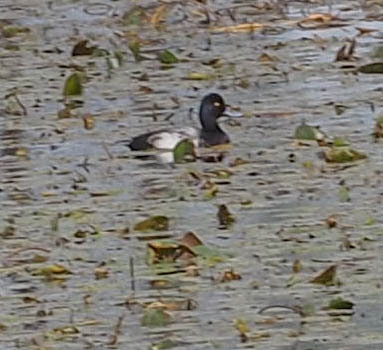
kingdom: Animalia
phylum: Chordata
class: Aves
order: Anseriformes
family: Anatidae
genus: Aythya
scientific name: Aythya affinis
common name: Lesser scaup
